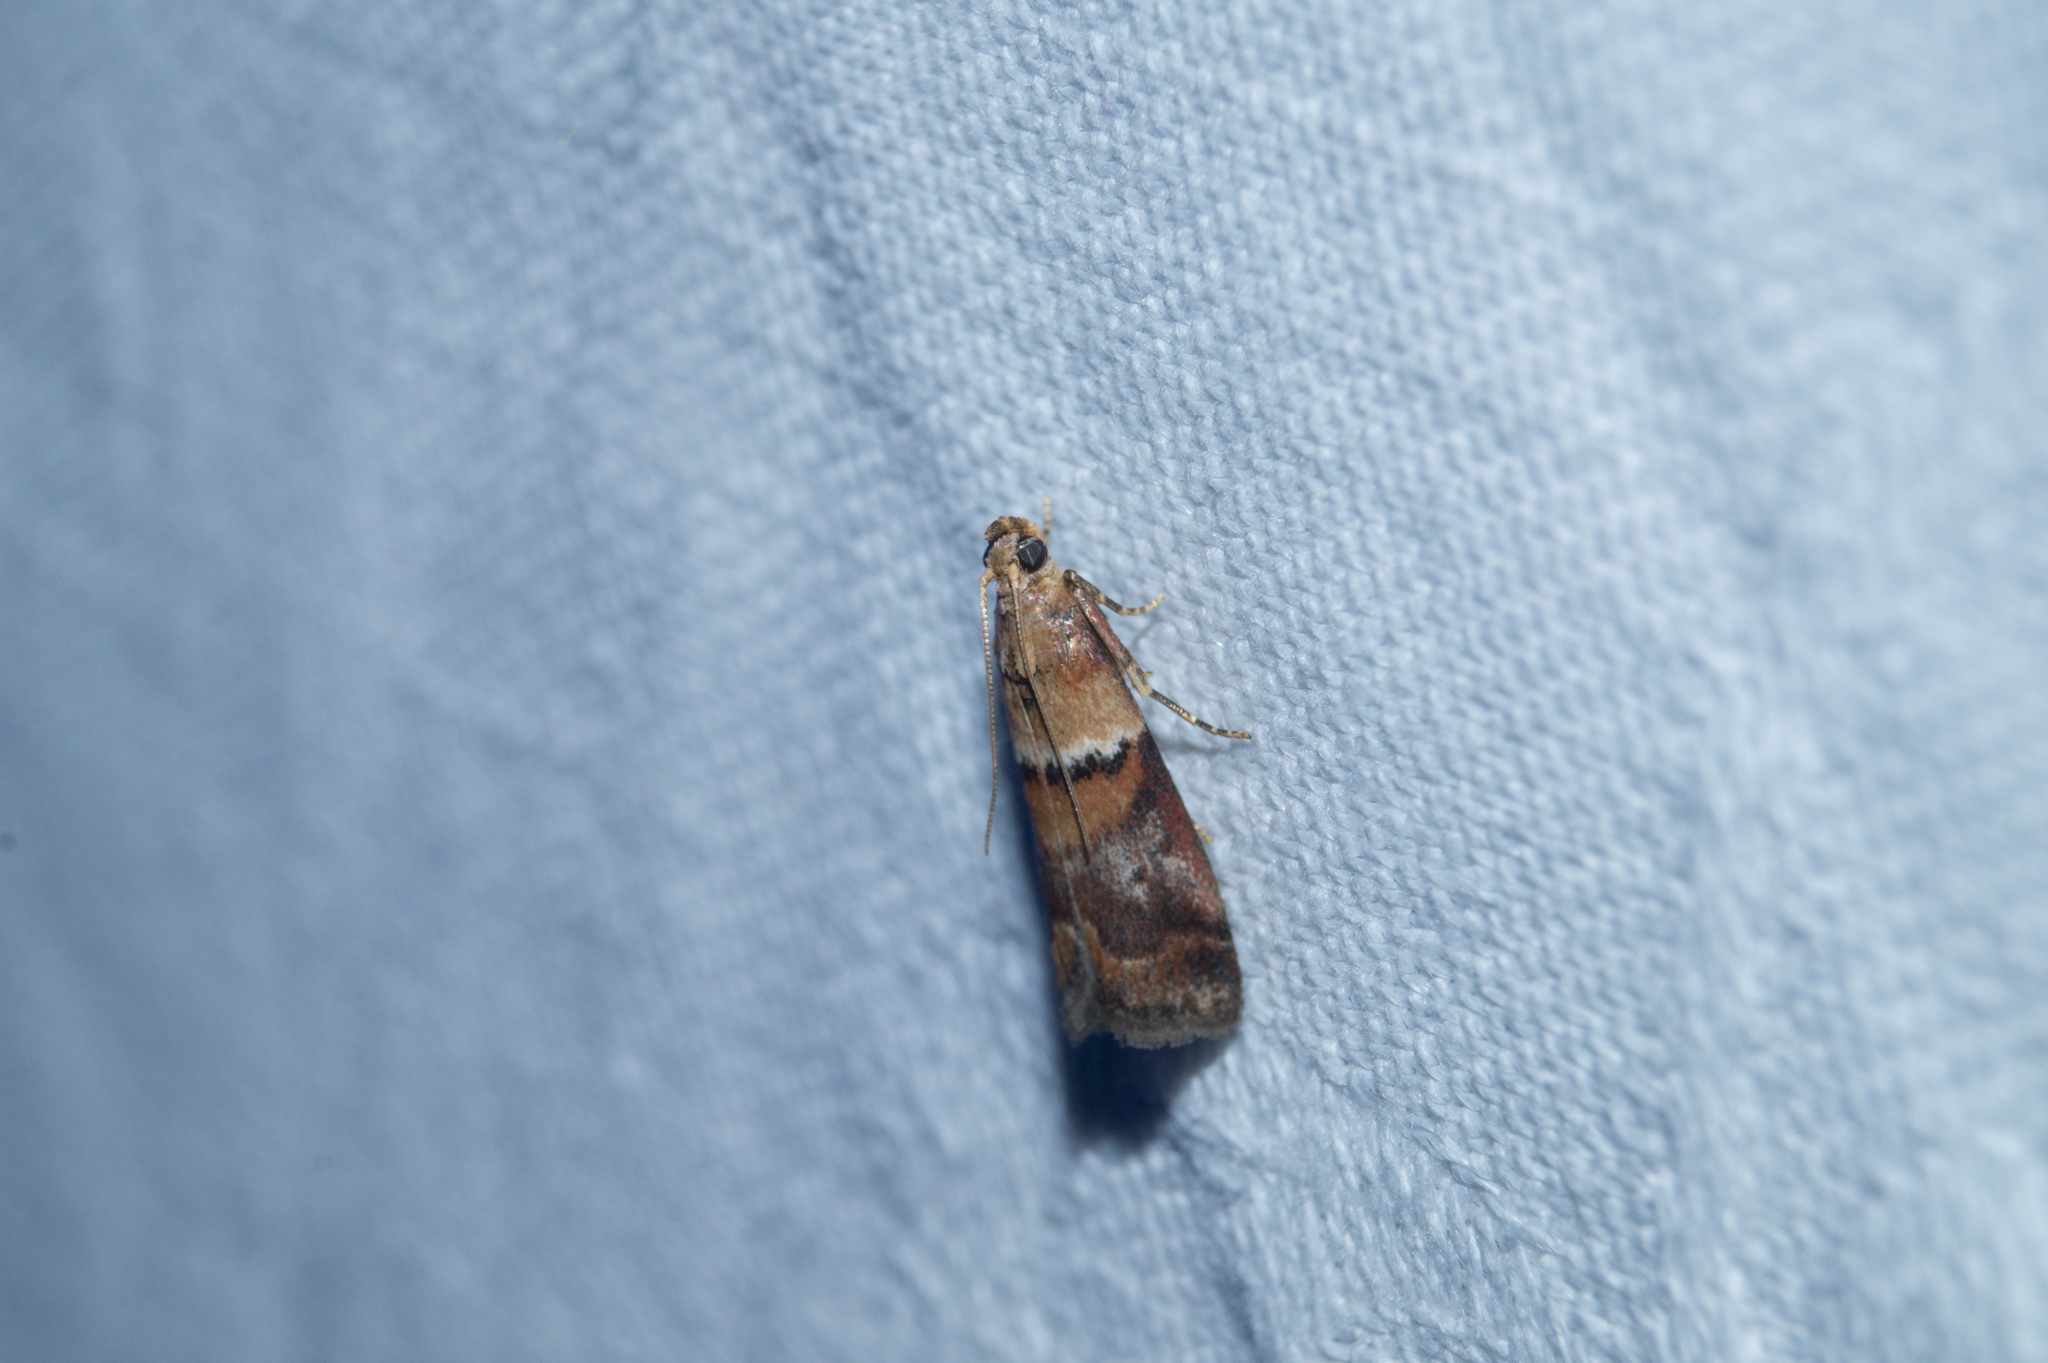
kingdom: Animalia
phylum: Arthropoda
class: Insecta
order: Lepidoptera
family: Pyralidae
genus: Acrobasis
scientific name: Acrobasis repandana
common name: Warted knot-horn
